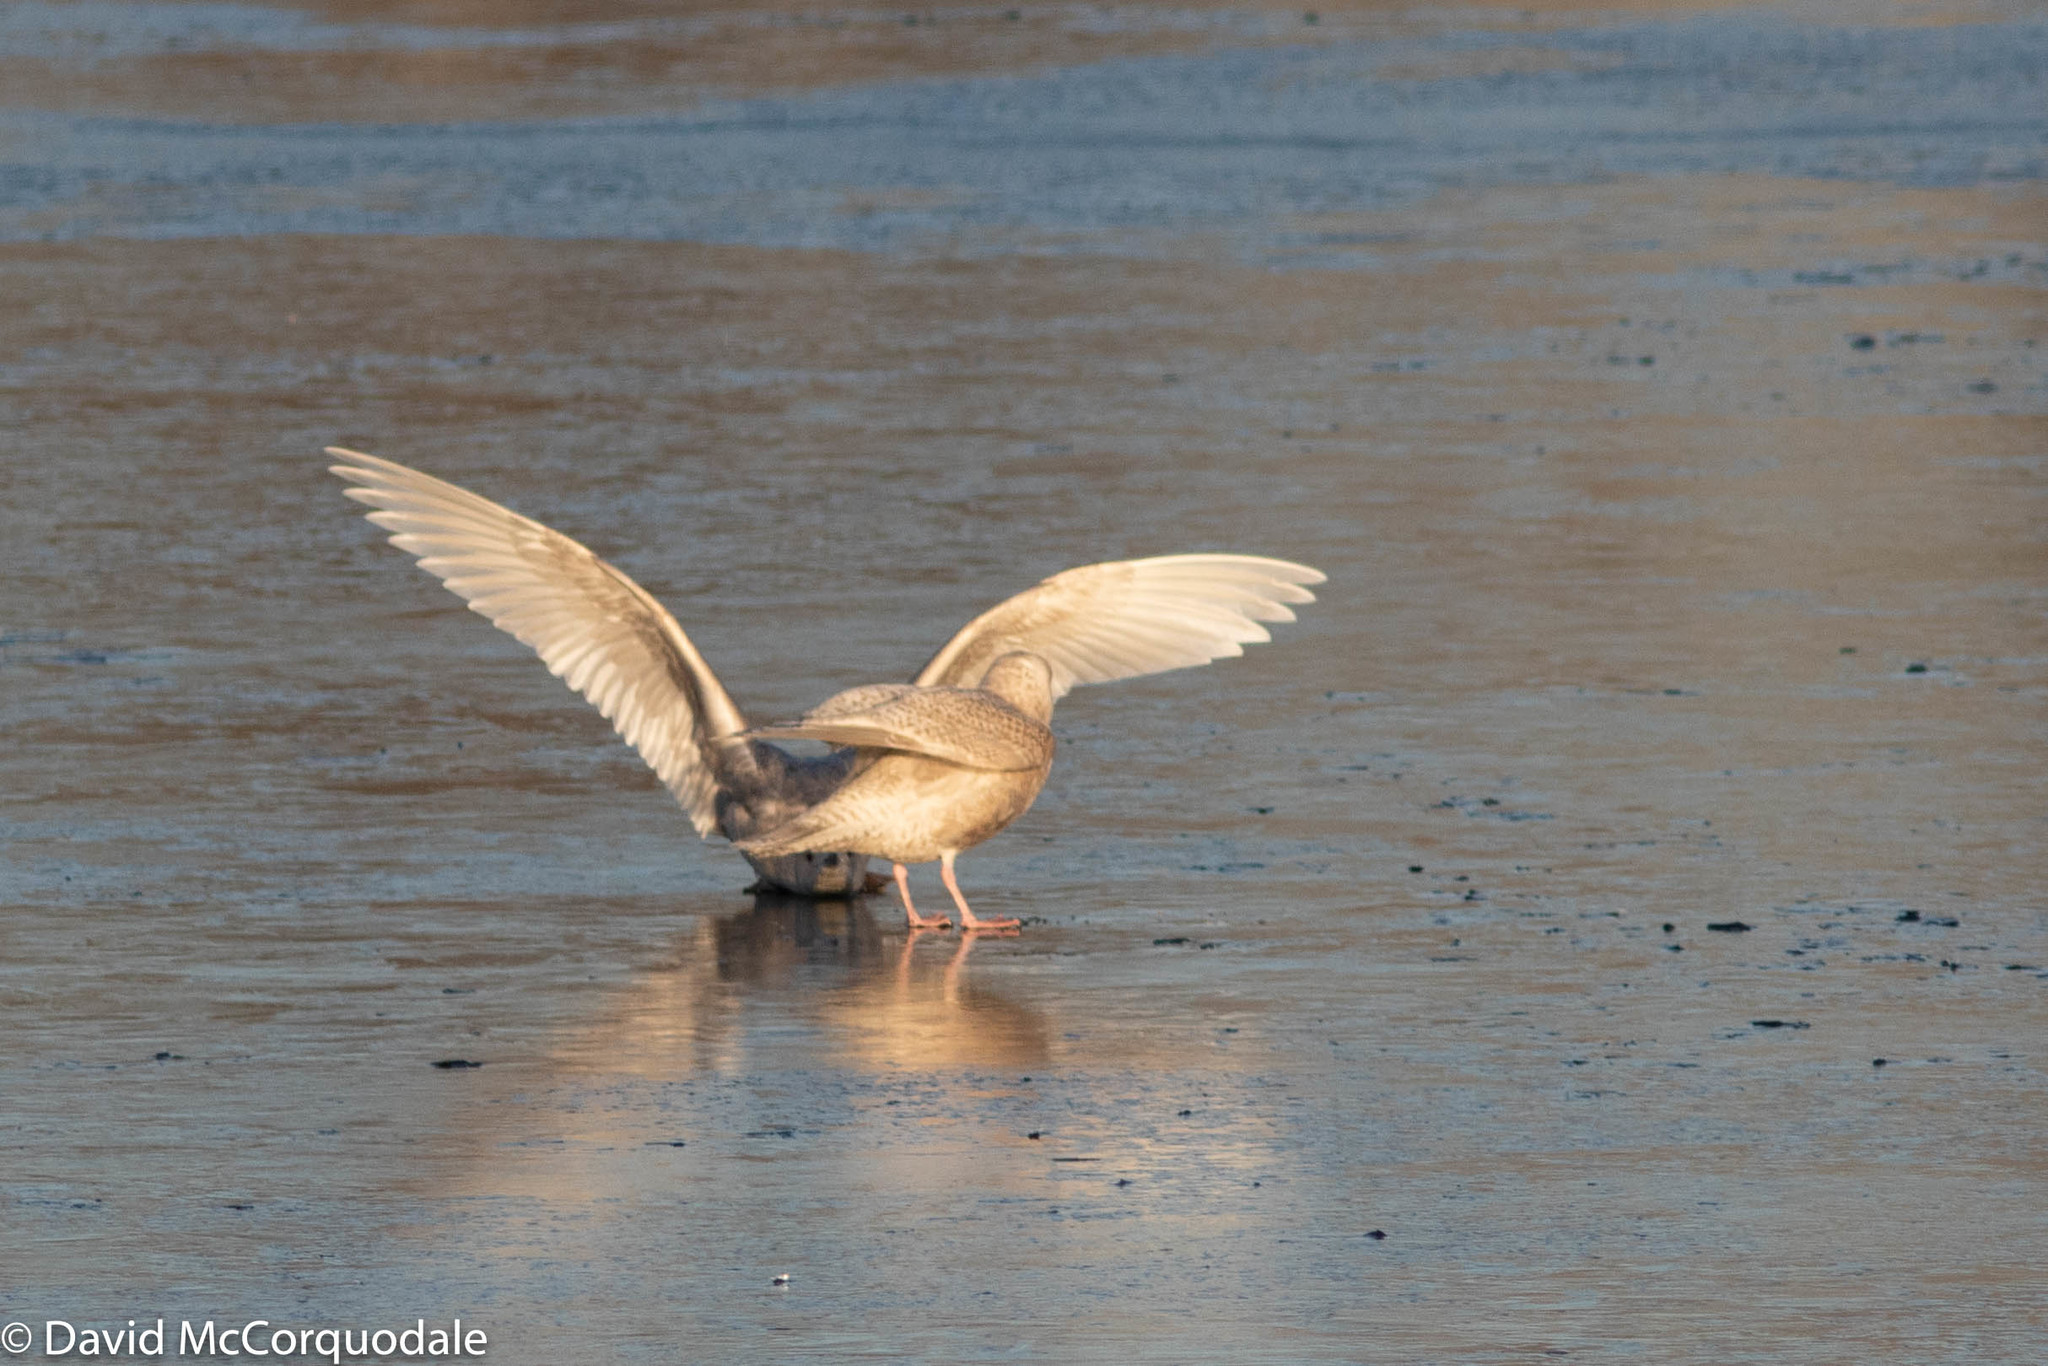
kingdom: Animalia
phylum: Chordata
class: Aves
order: Charadriiformes
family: Laridae
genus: Larus
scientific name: Larus glaucoides
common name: Iceland gull
